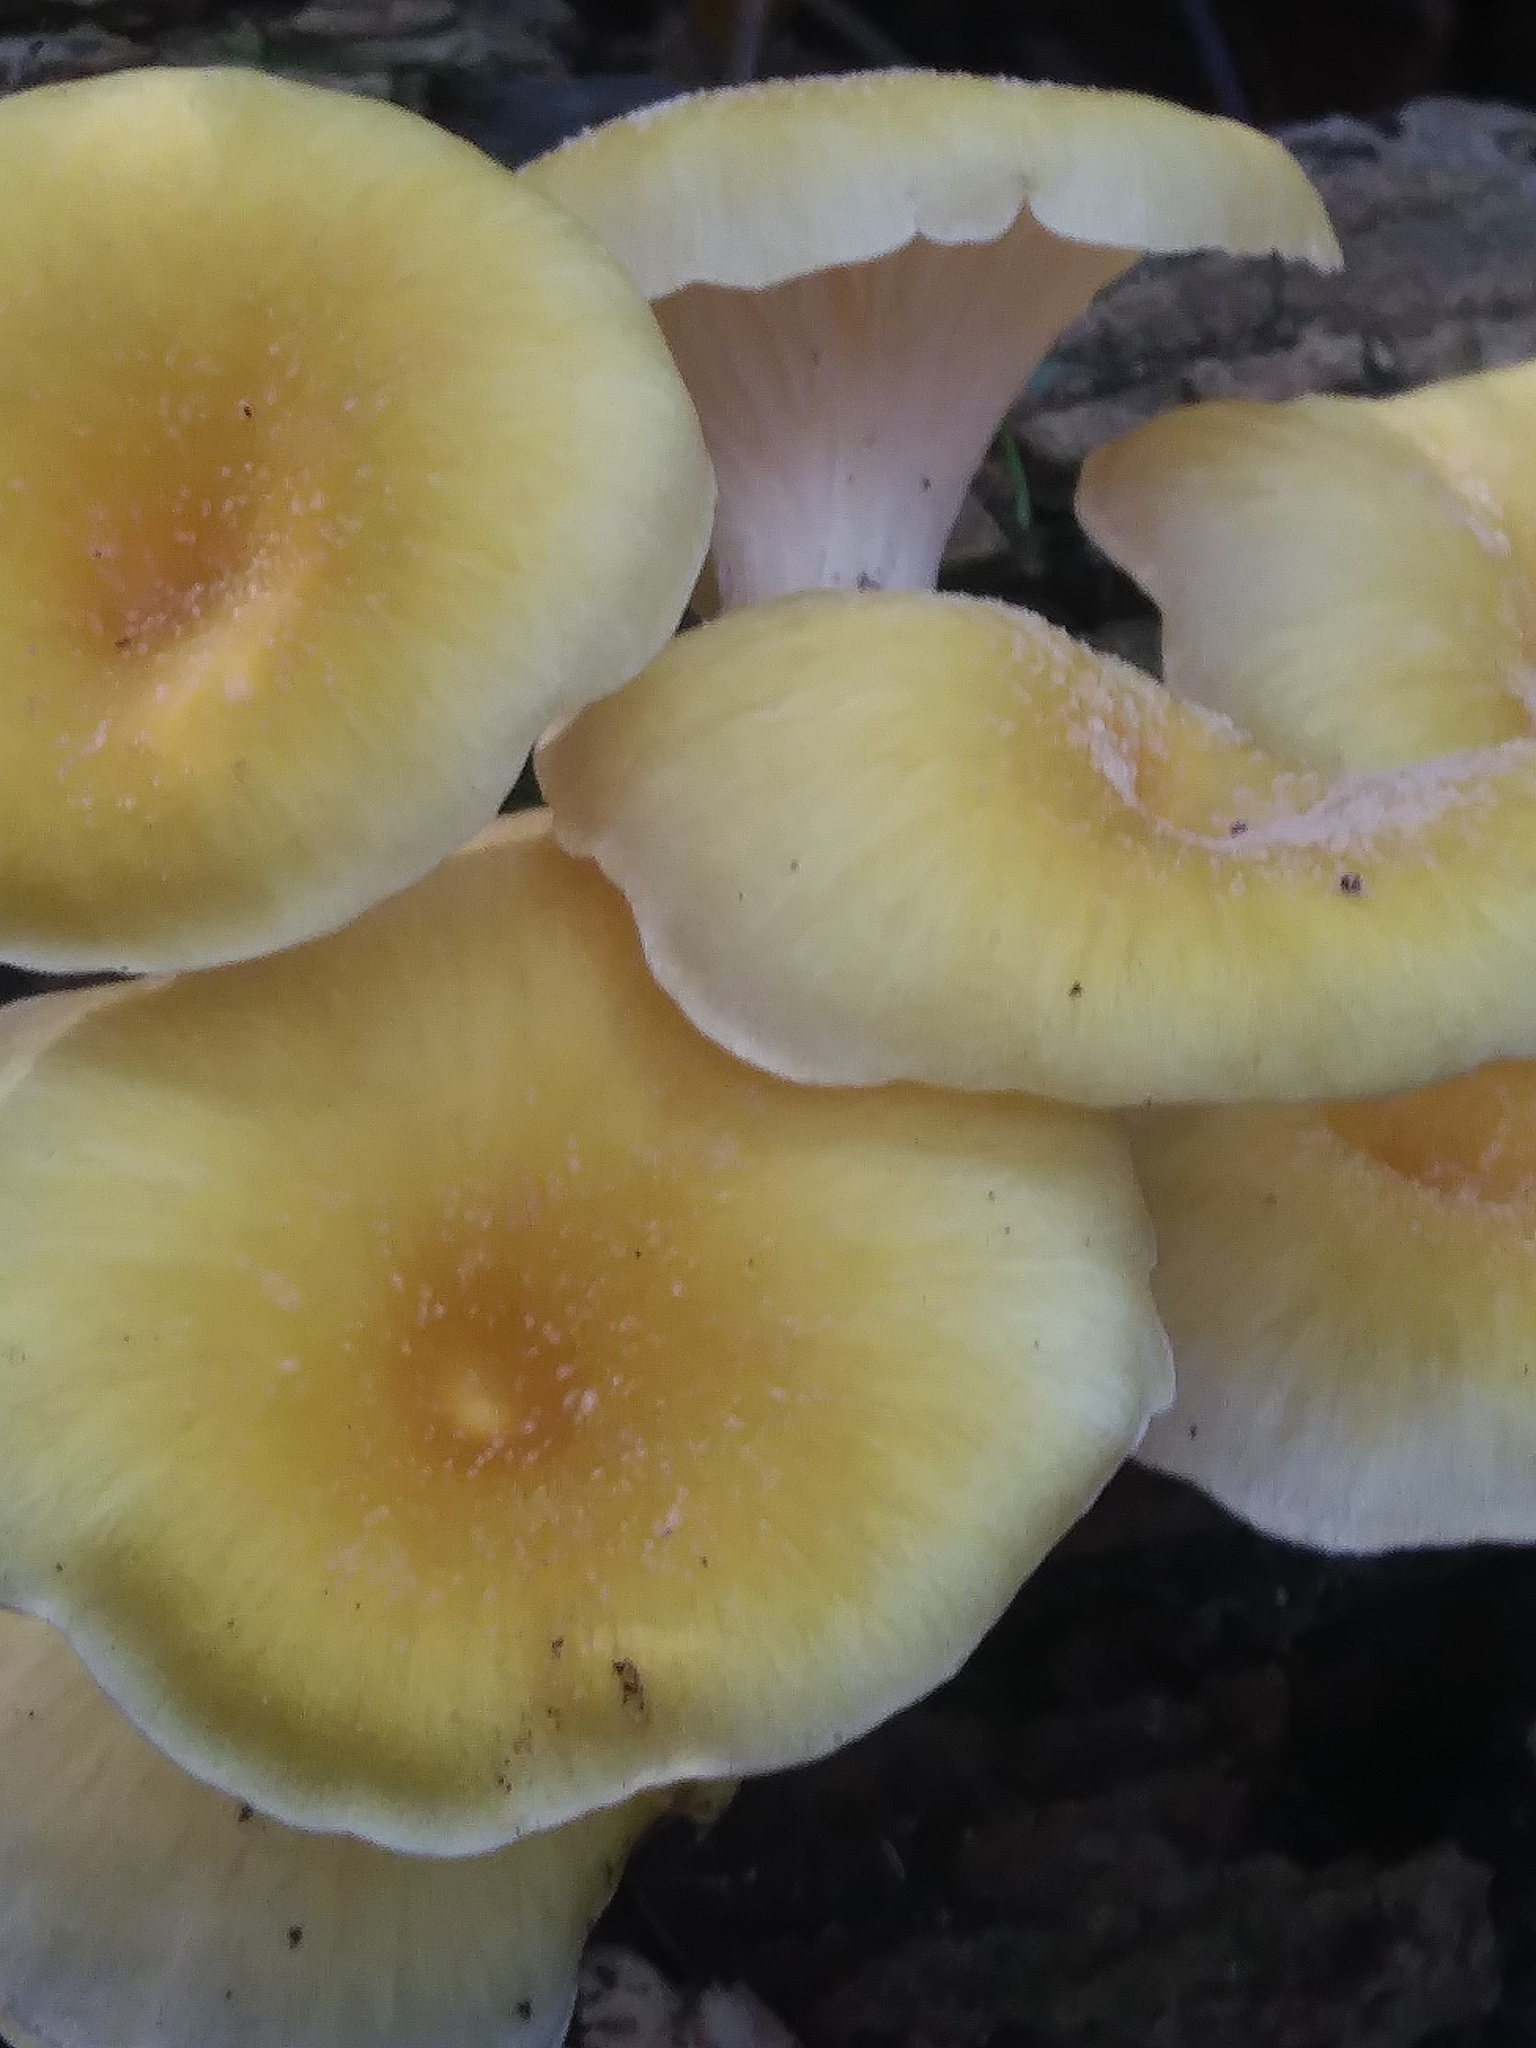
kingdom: Fungi
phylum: Basidiomycota
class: Agaricomycetes
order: Agaricales
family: Pleurotaceae
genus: Pleurotus
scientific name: Pleurotus citrinopileatus
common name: Golden oyster mushroom
